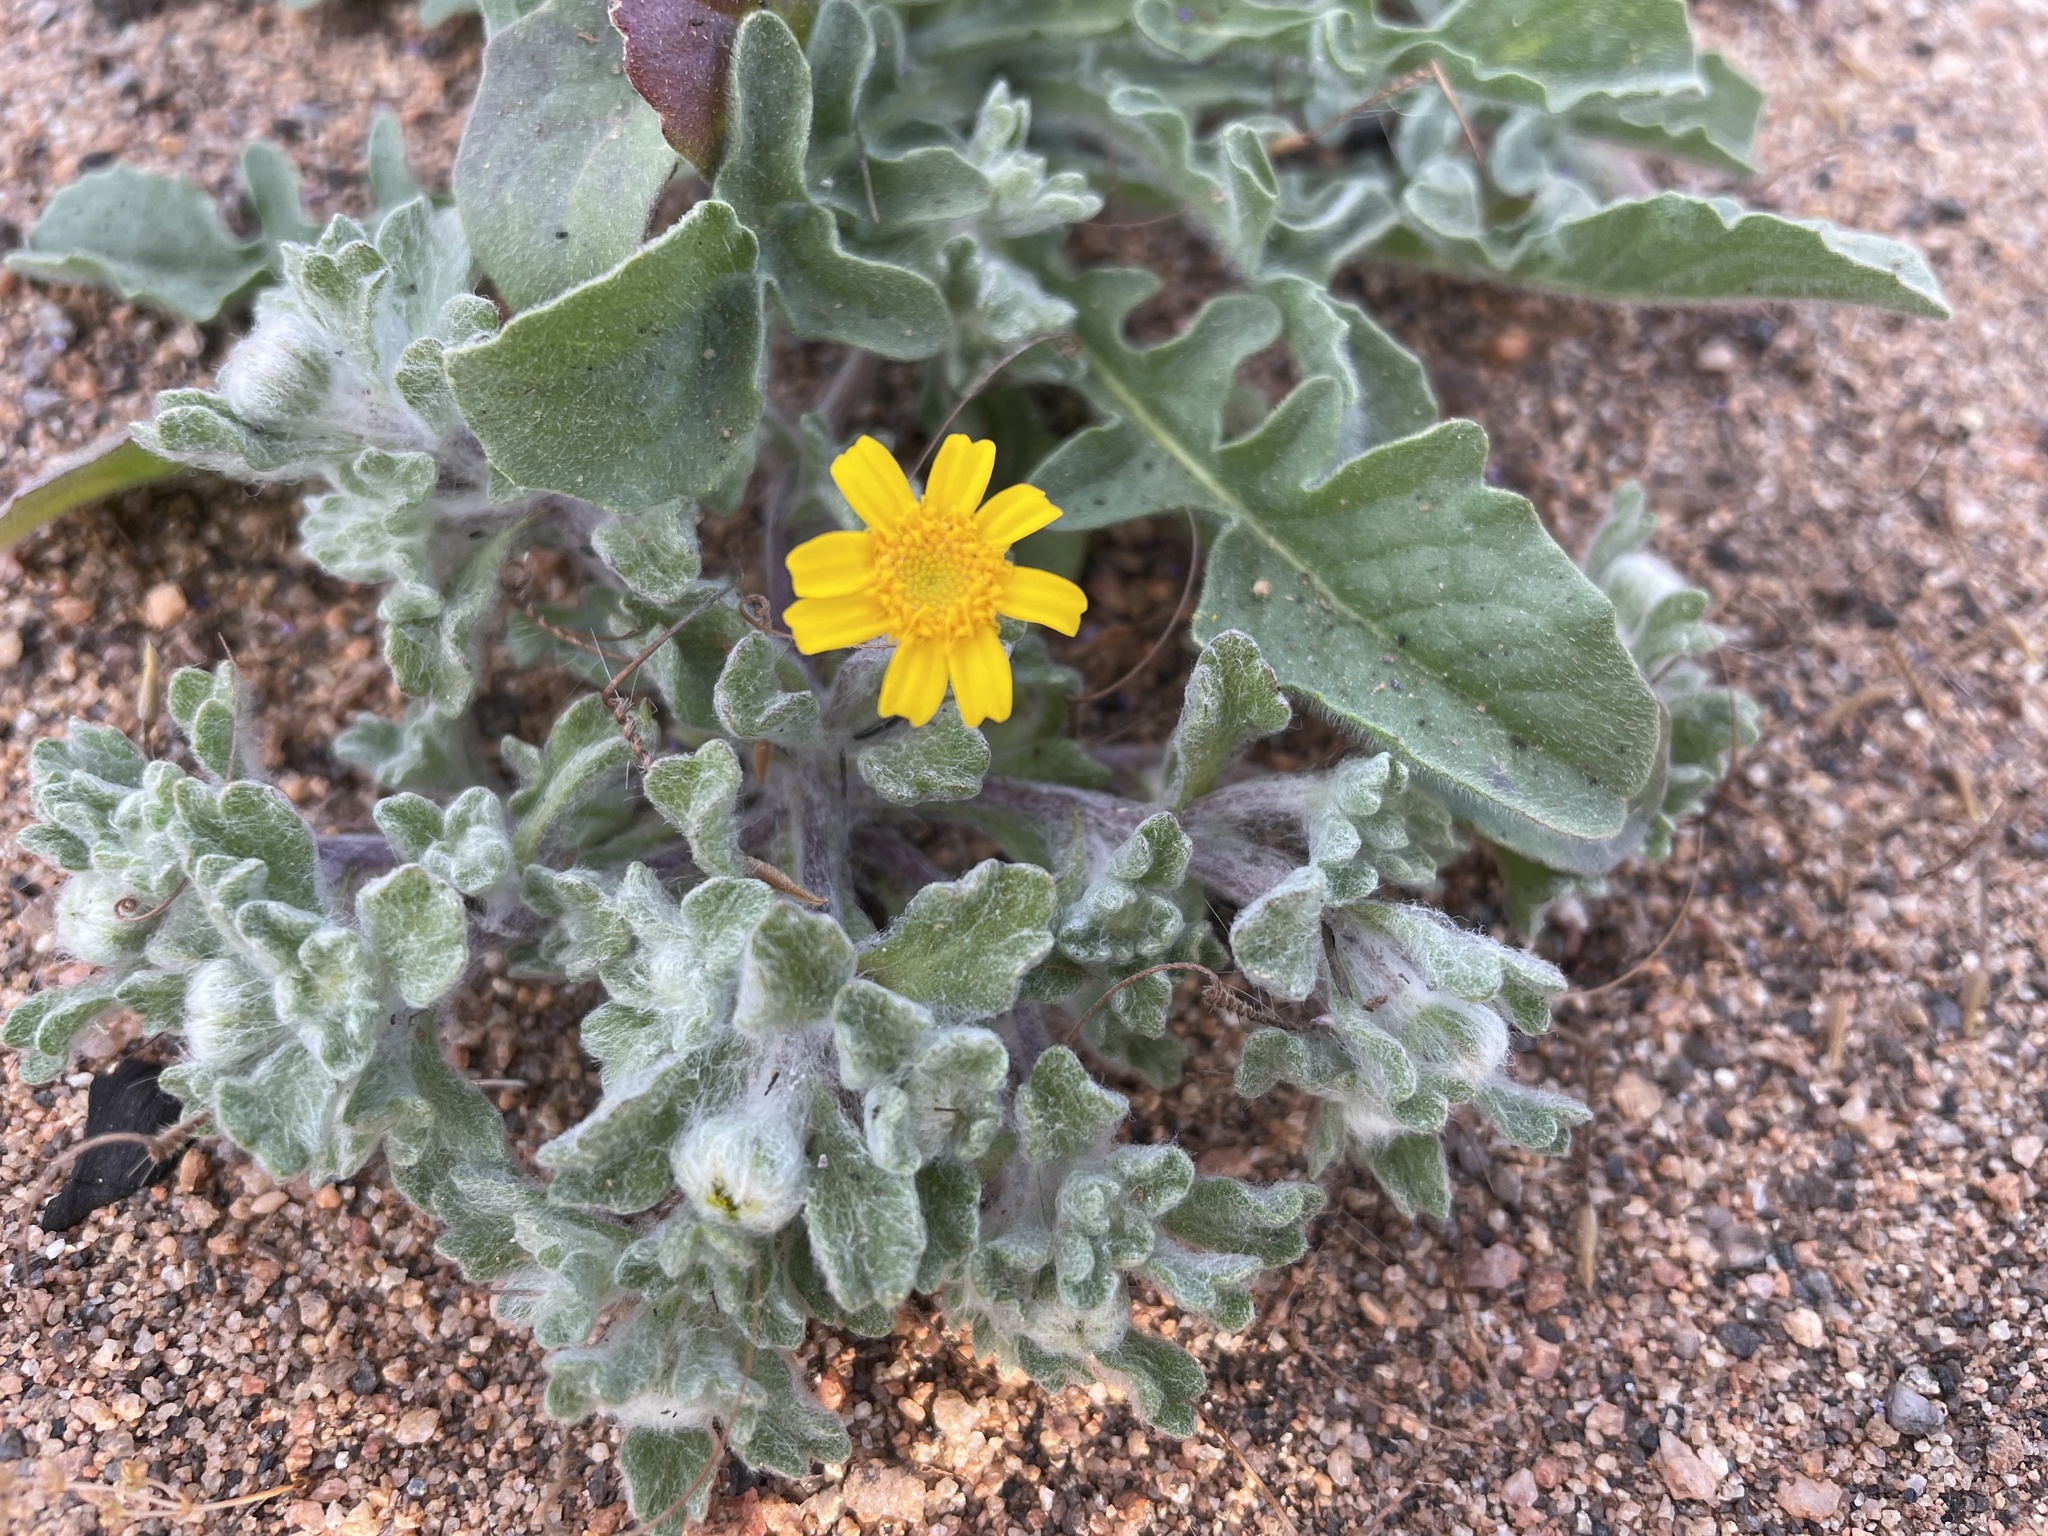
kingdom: Plantae
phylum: Tracheophyta
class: Magnoliopsida
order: Asterales
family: Asteraceae
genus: Eriophyllum
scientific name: Eriophyllum wallacei
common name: Wallace's woolly daisy
